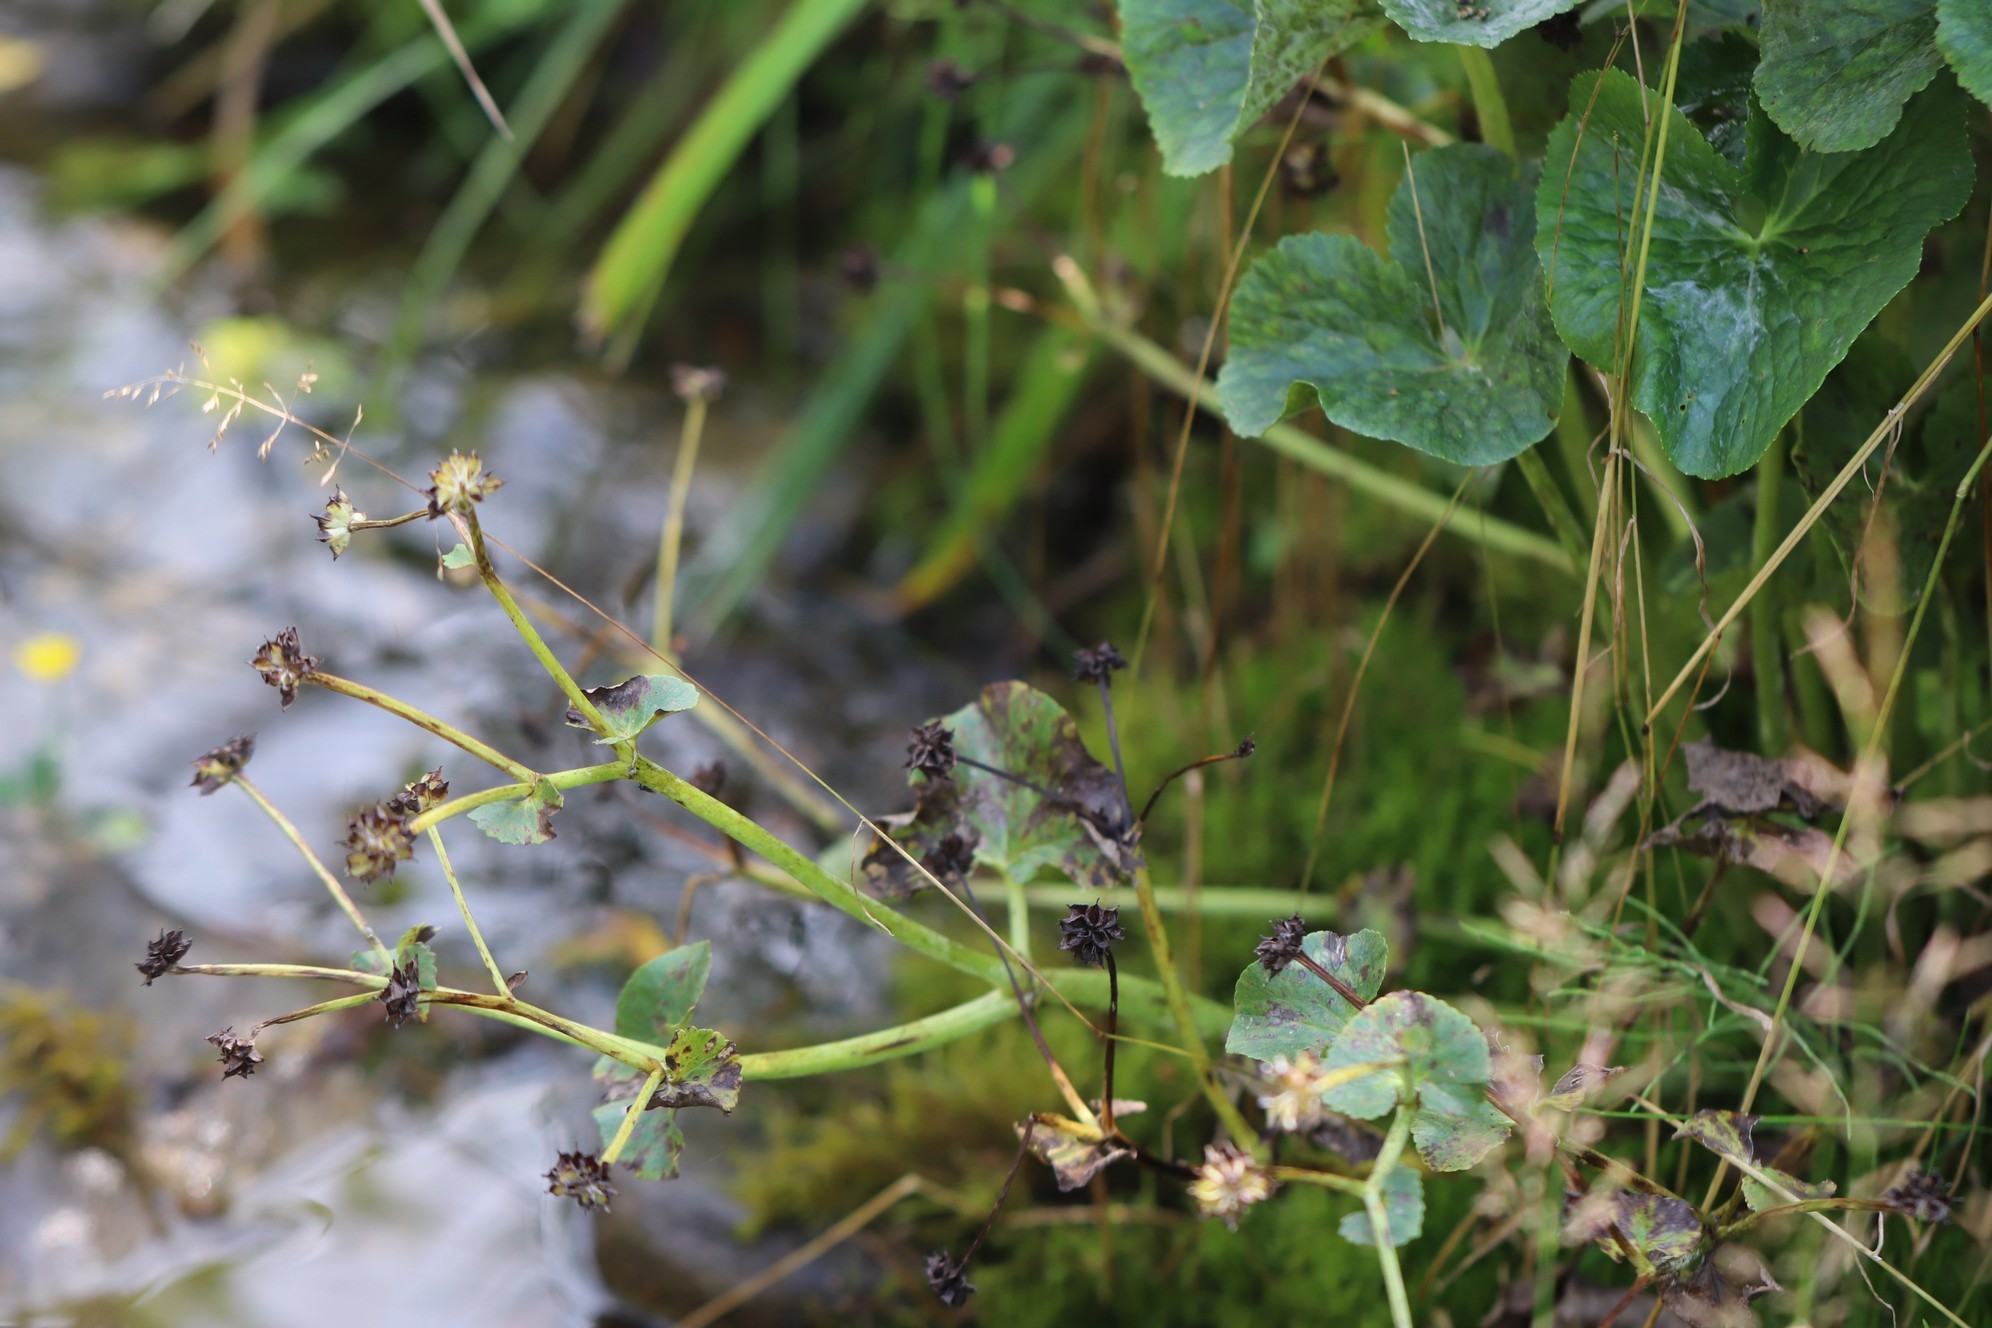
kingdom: Plantae
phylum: Tracheophyta
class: Magnoliopsida
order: Ranunculales
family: Ranunculaceae
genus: Caltha
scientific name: Caltha palustris
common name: Marsh marigold
